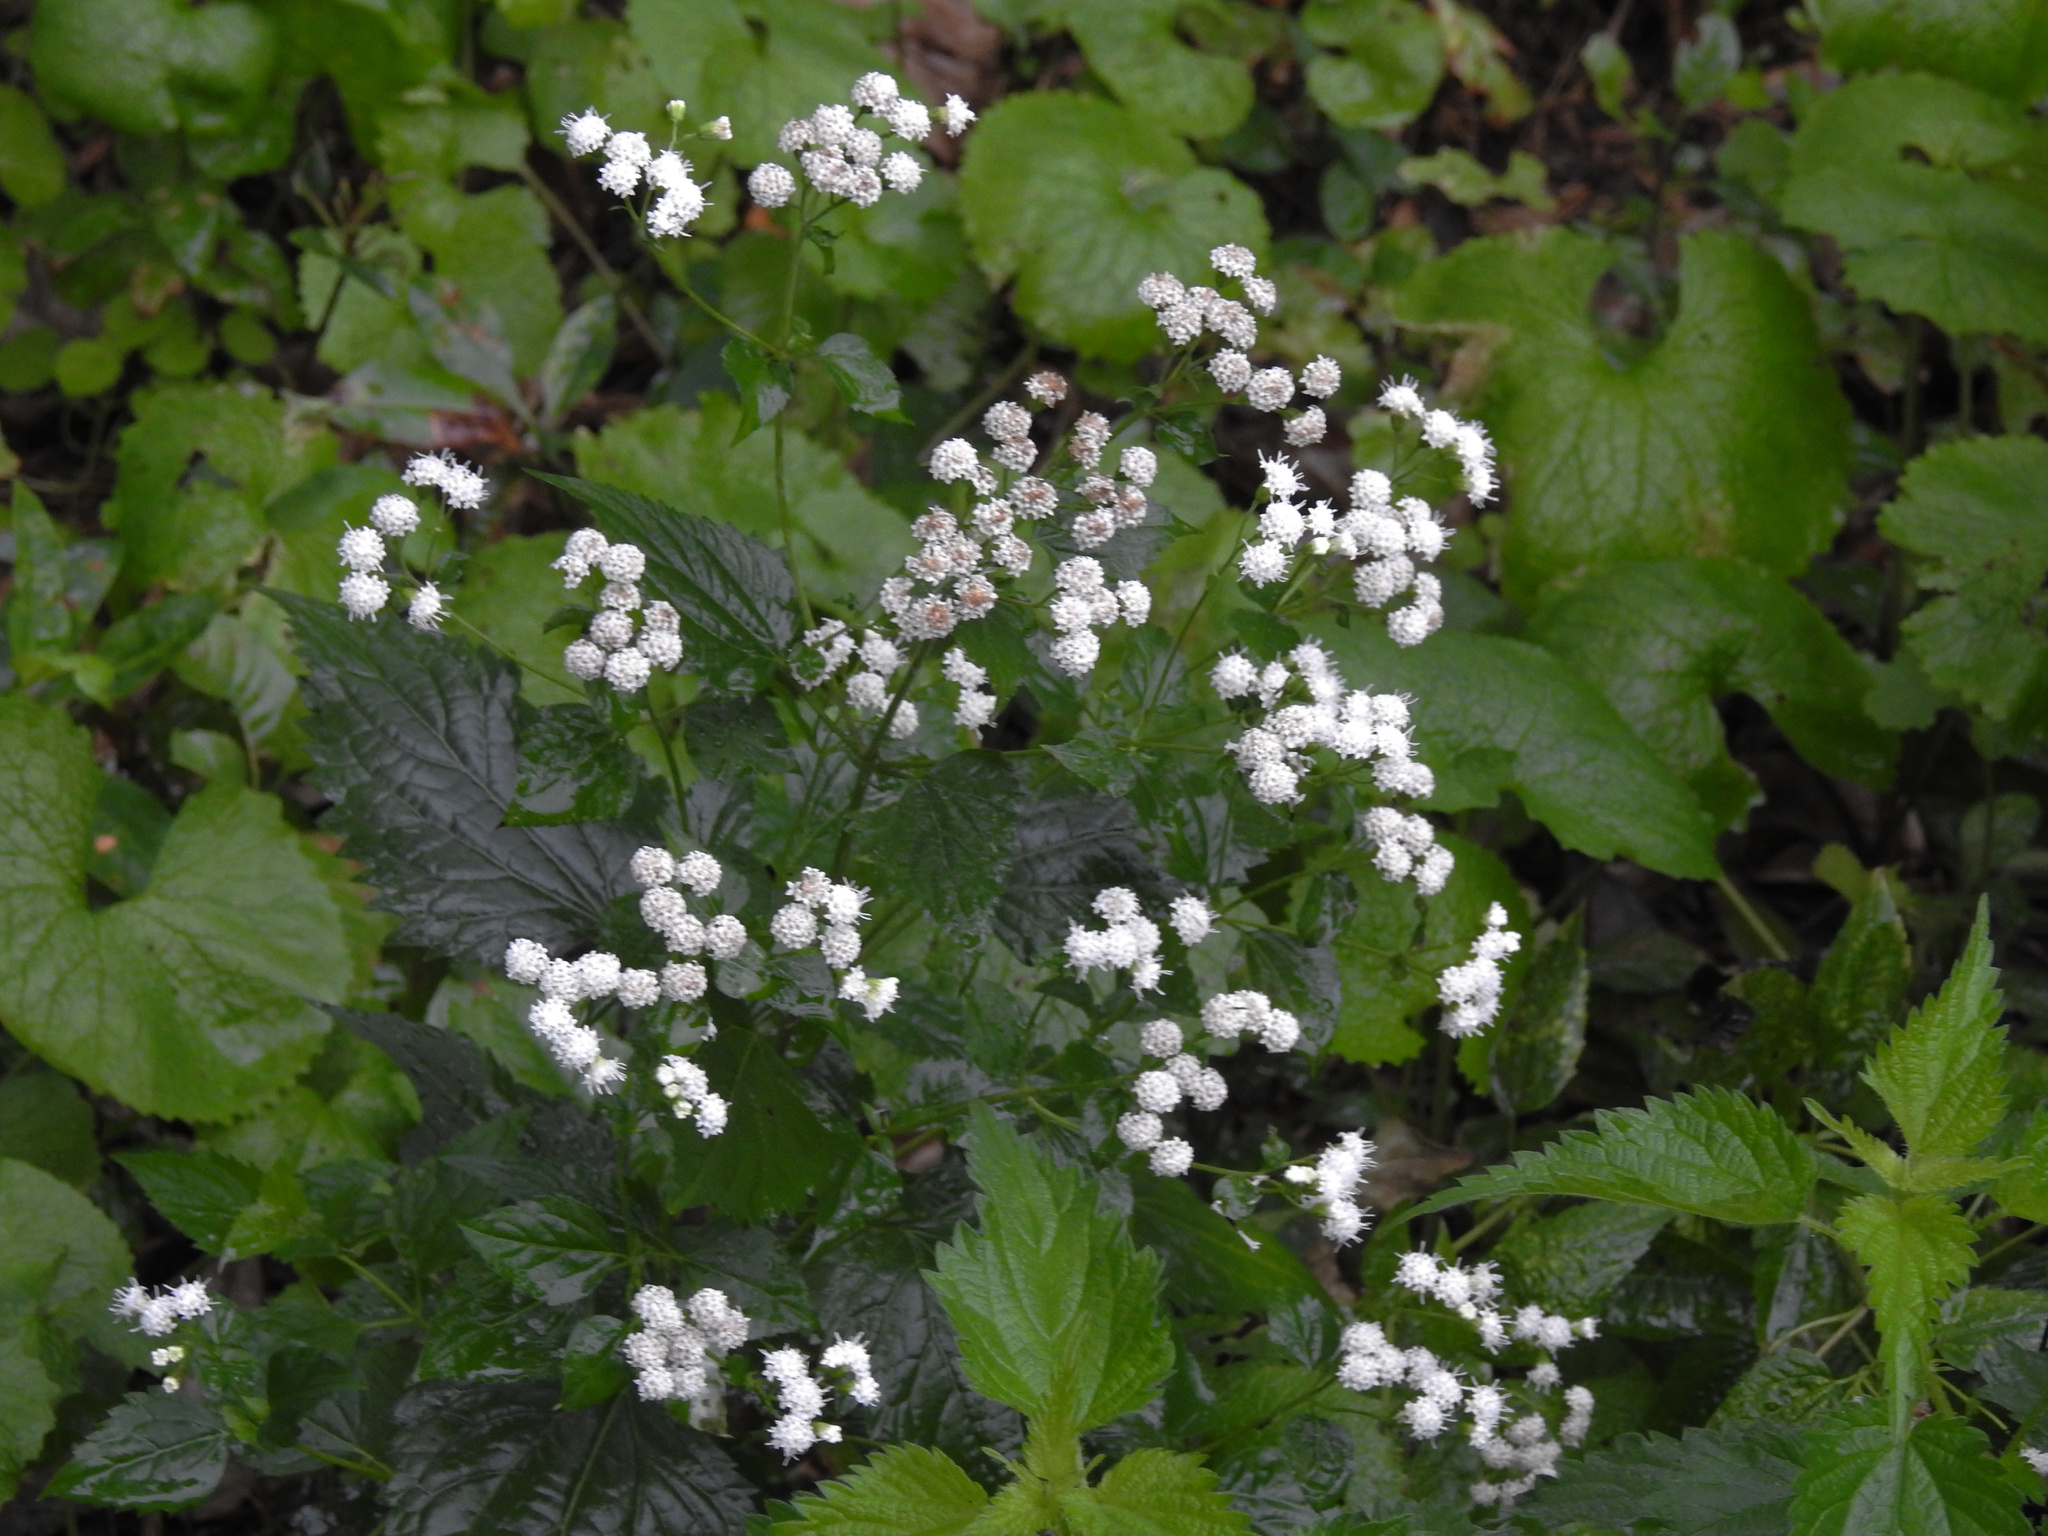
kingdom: Plantae
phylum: Tracheophyta
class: Magnoliopsida
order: Asterales
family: Asteraceae
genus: Ageratina
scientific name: Ageratina altissima
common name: White snakeroot
